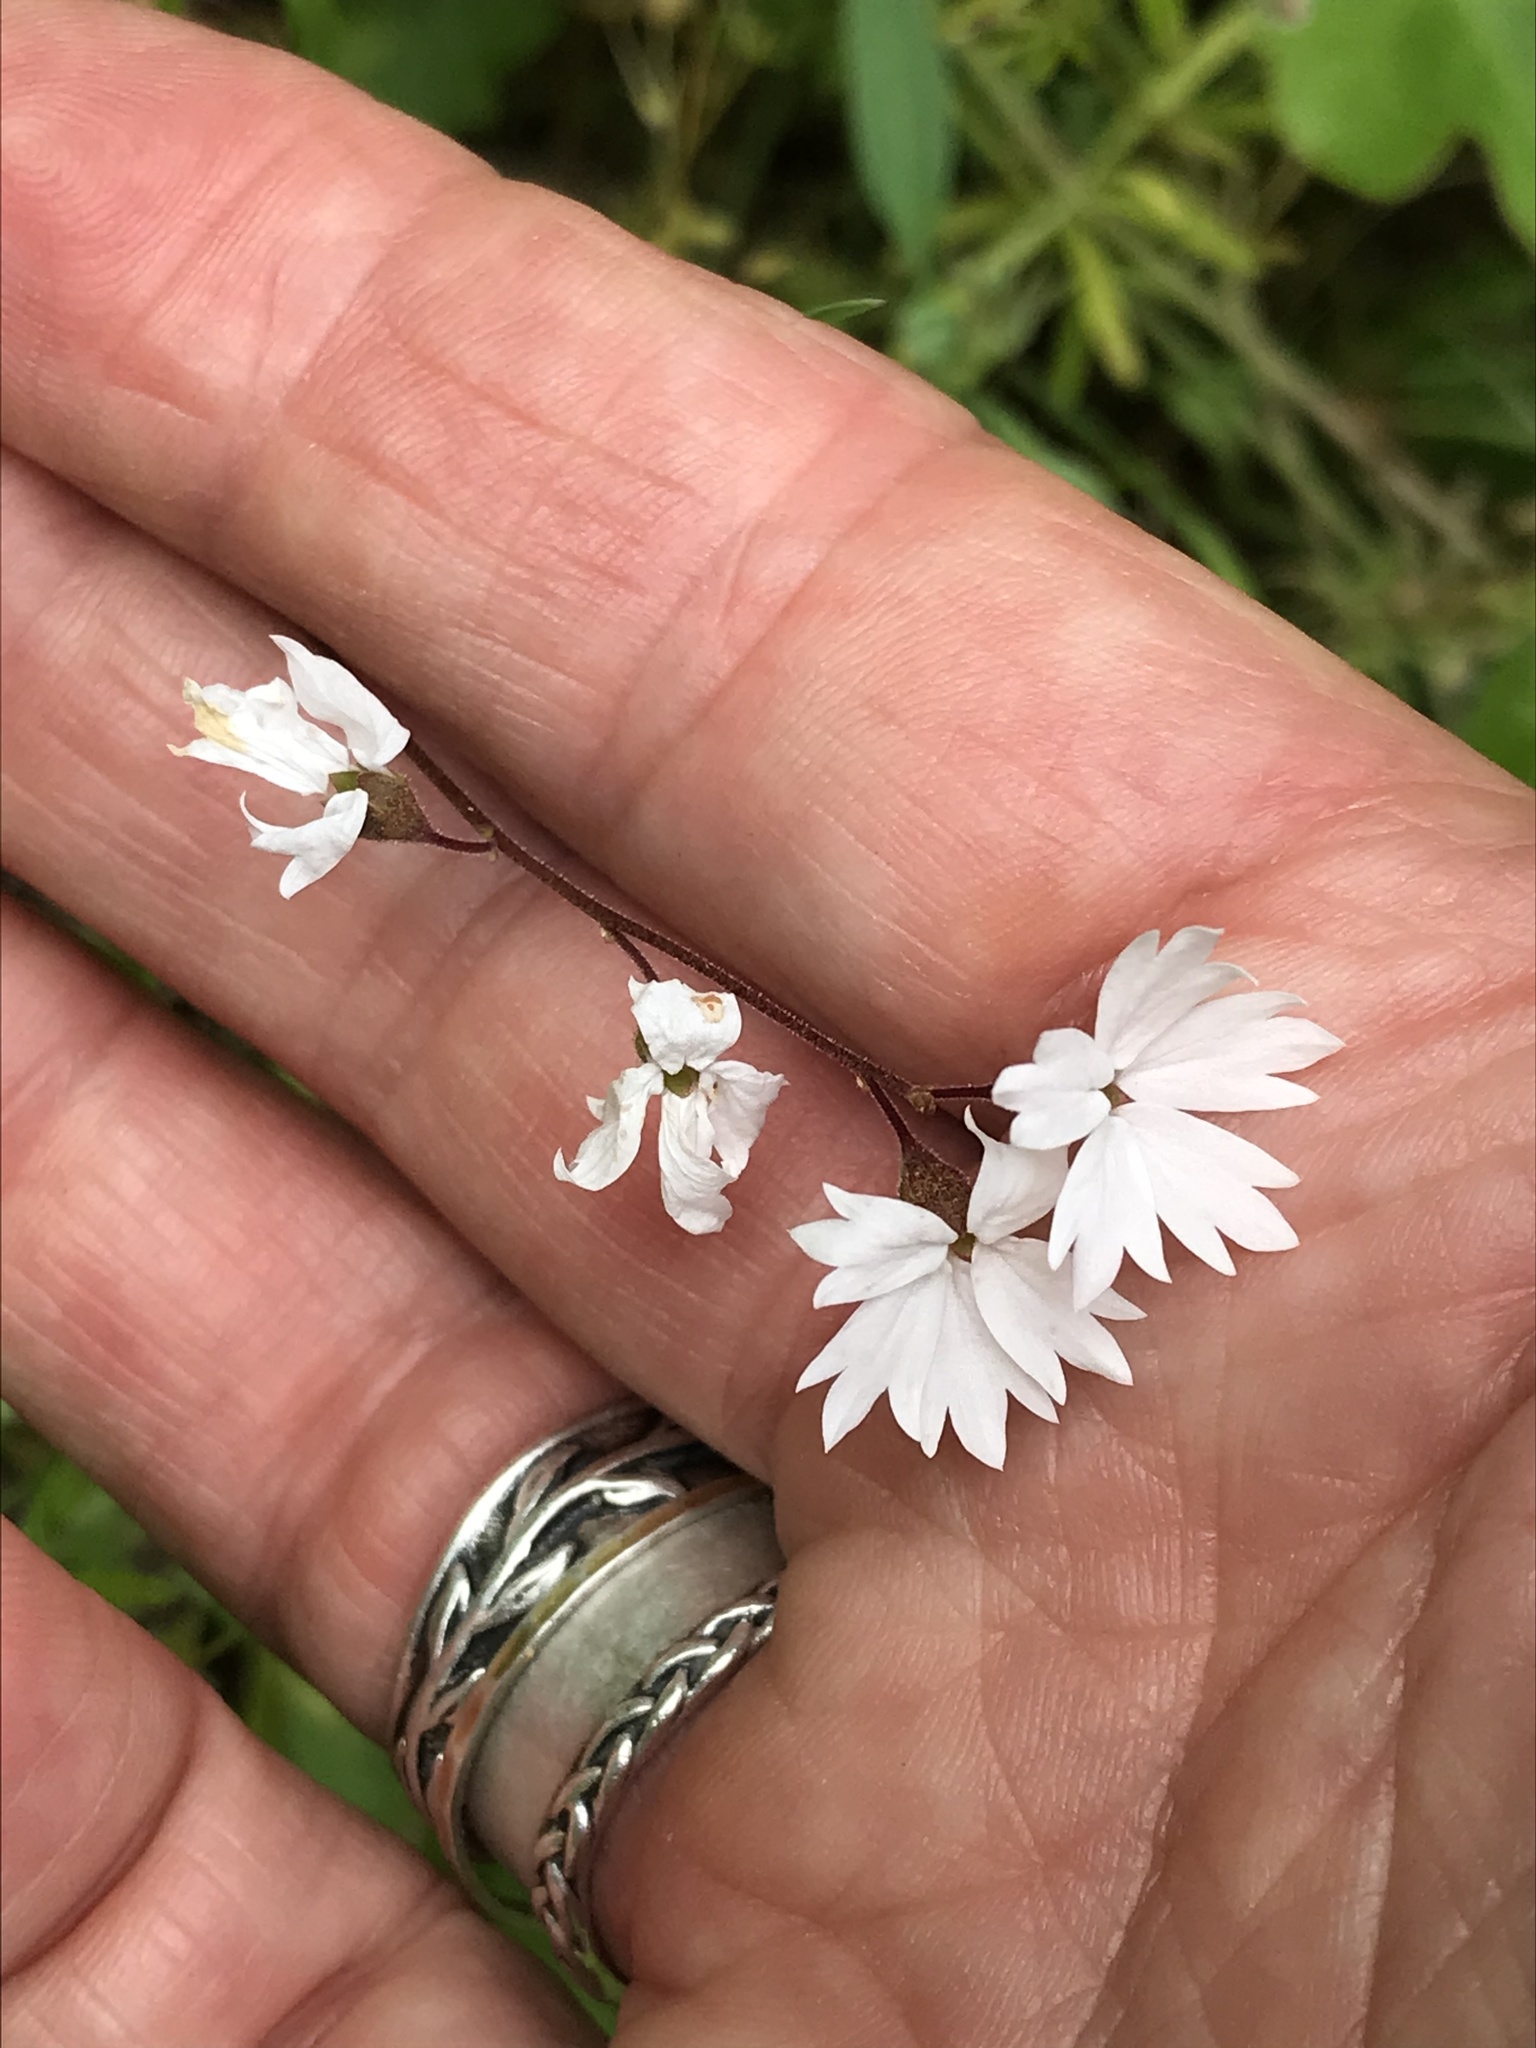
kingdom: Plantae
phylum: Tracheophyta
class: Magnoliopsida
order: Saxifragales
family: Saxifragaceae
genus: Lithophragma
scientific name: Lithophragma affine
